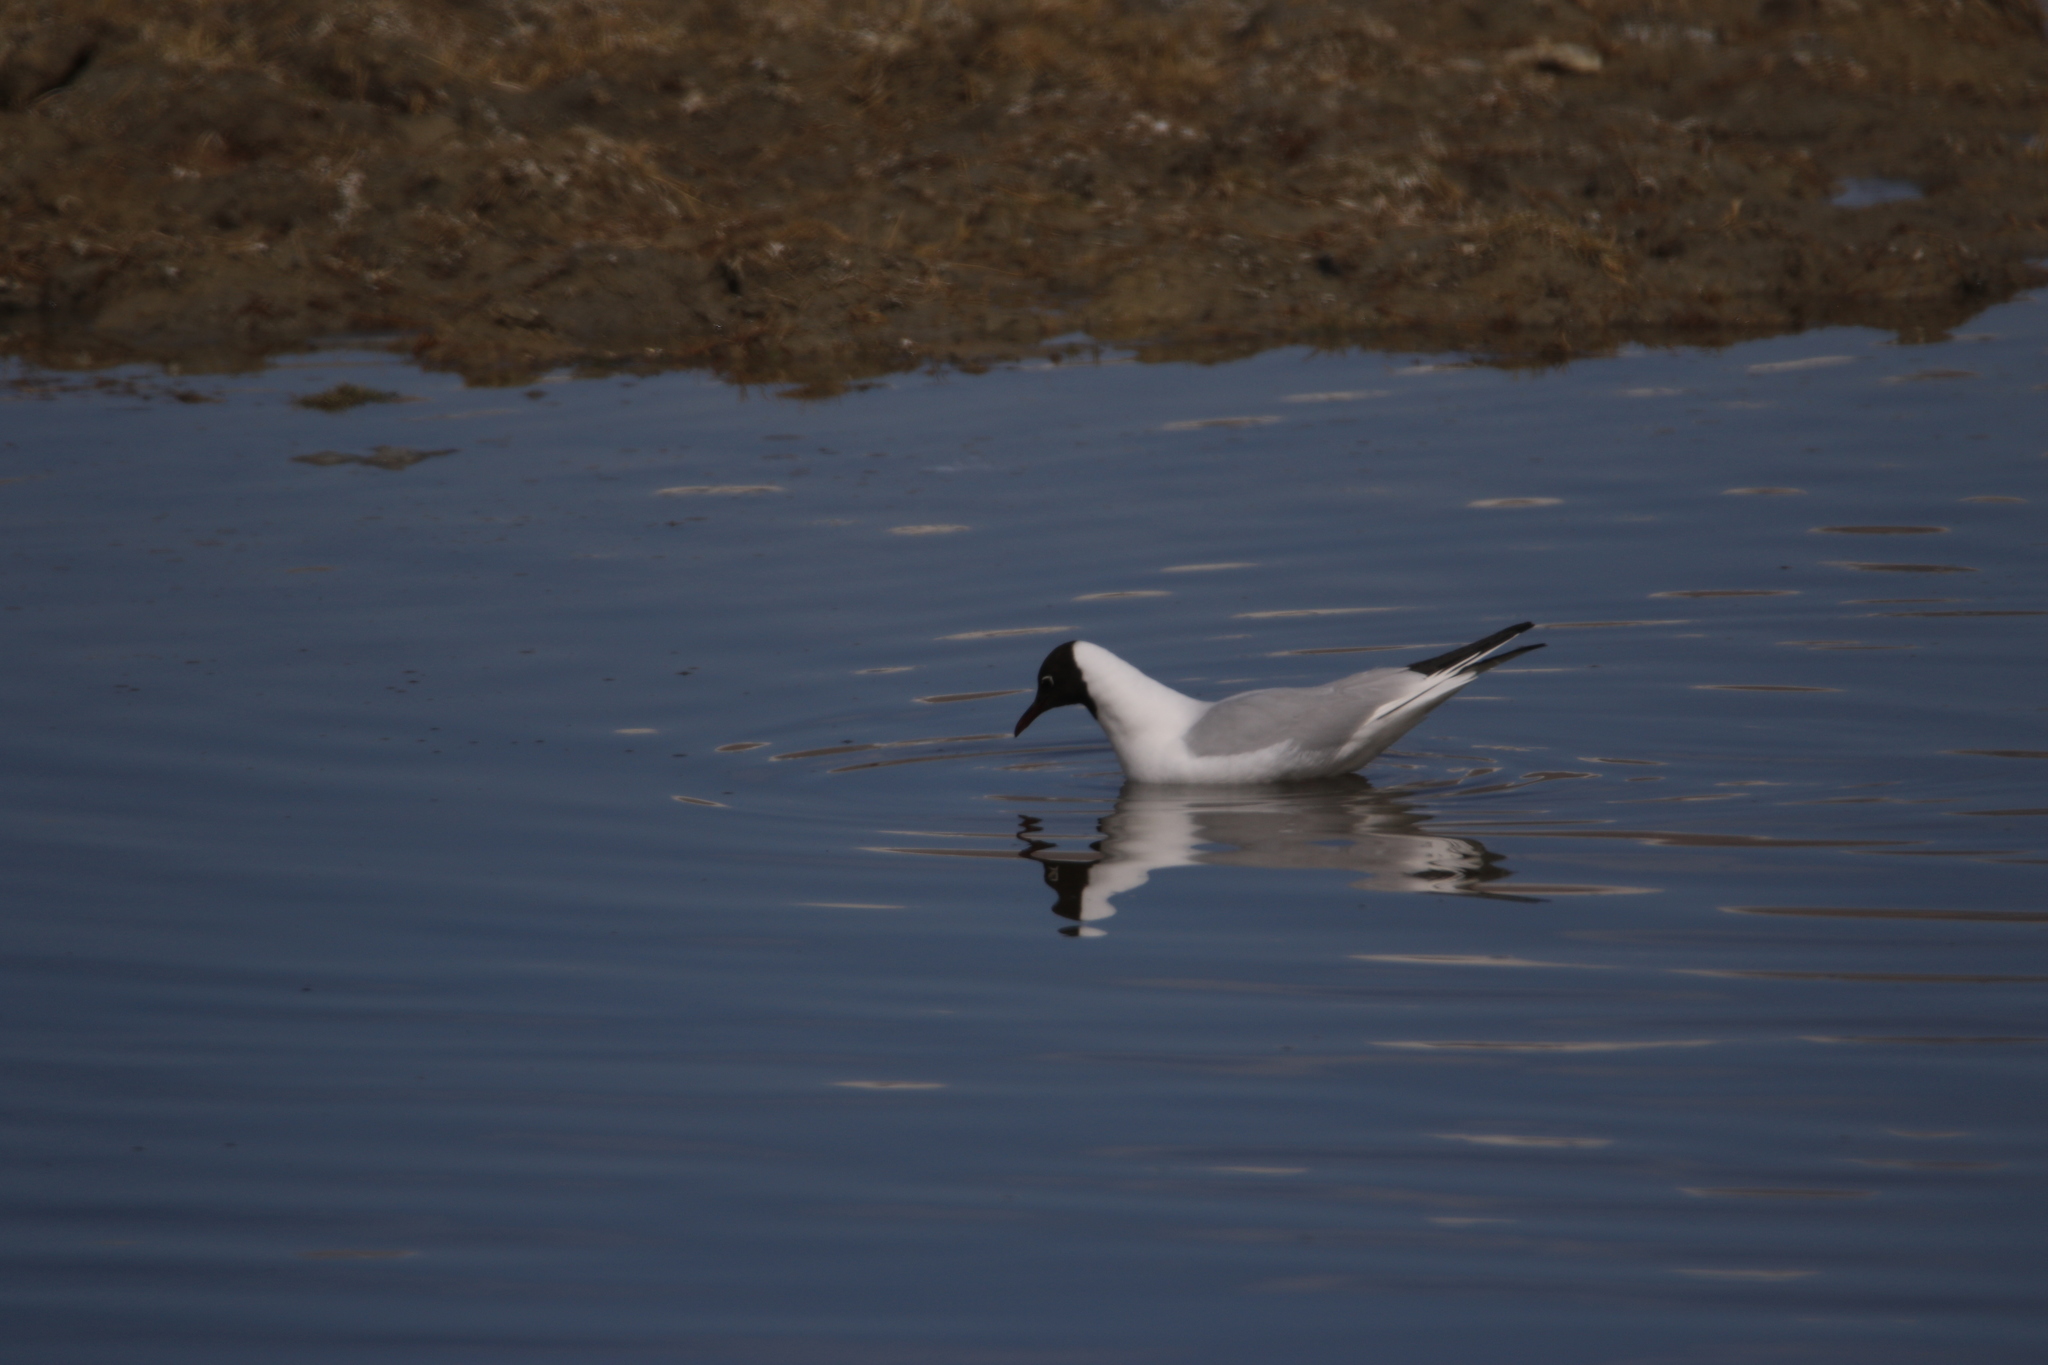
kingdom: Animalia
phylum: Chordata
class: Aves
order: Charadriiformes
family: Laridae
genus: Chroicocephalus
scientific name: Chroicocephalus ridibundus
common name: Black-headed gull
